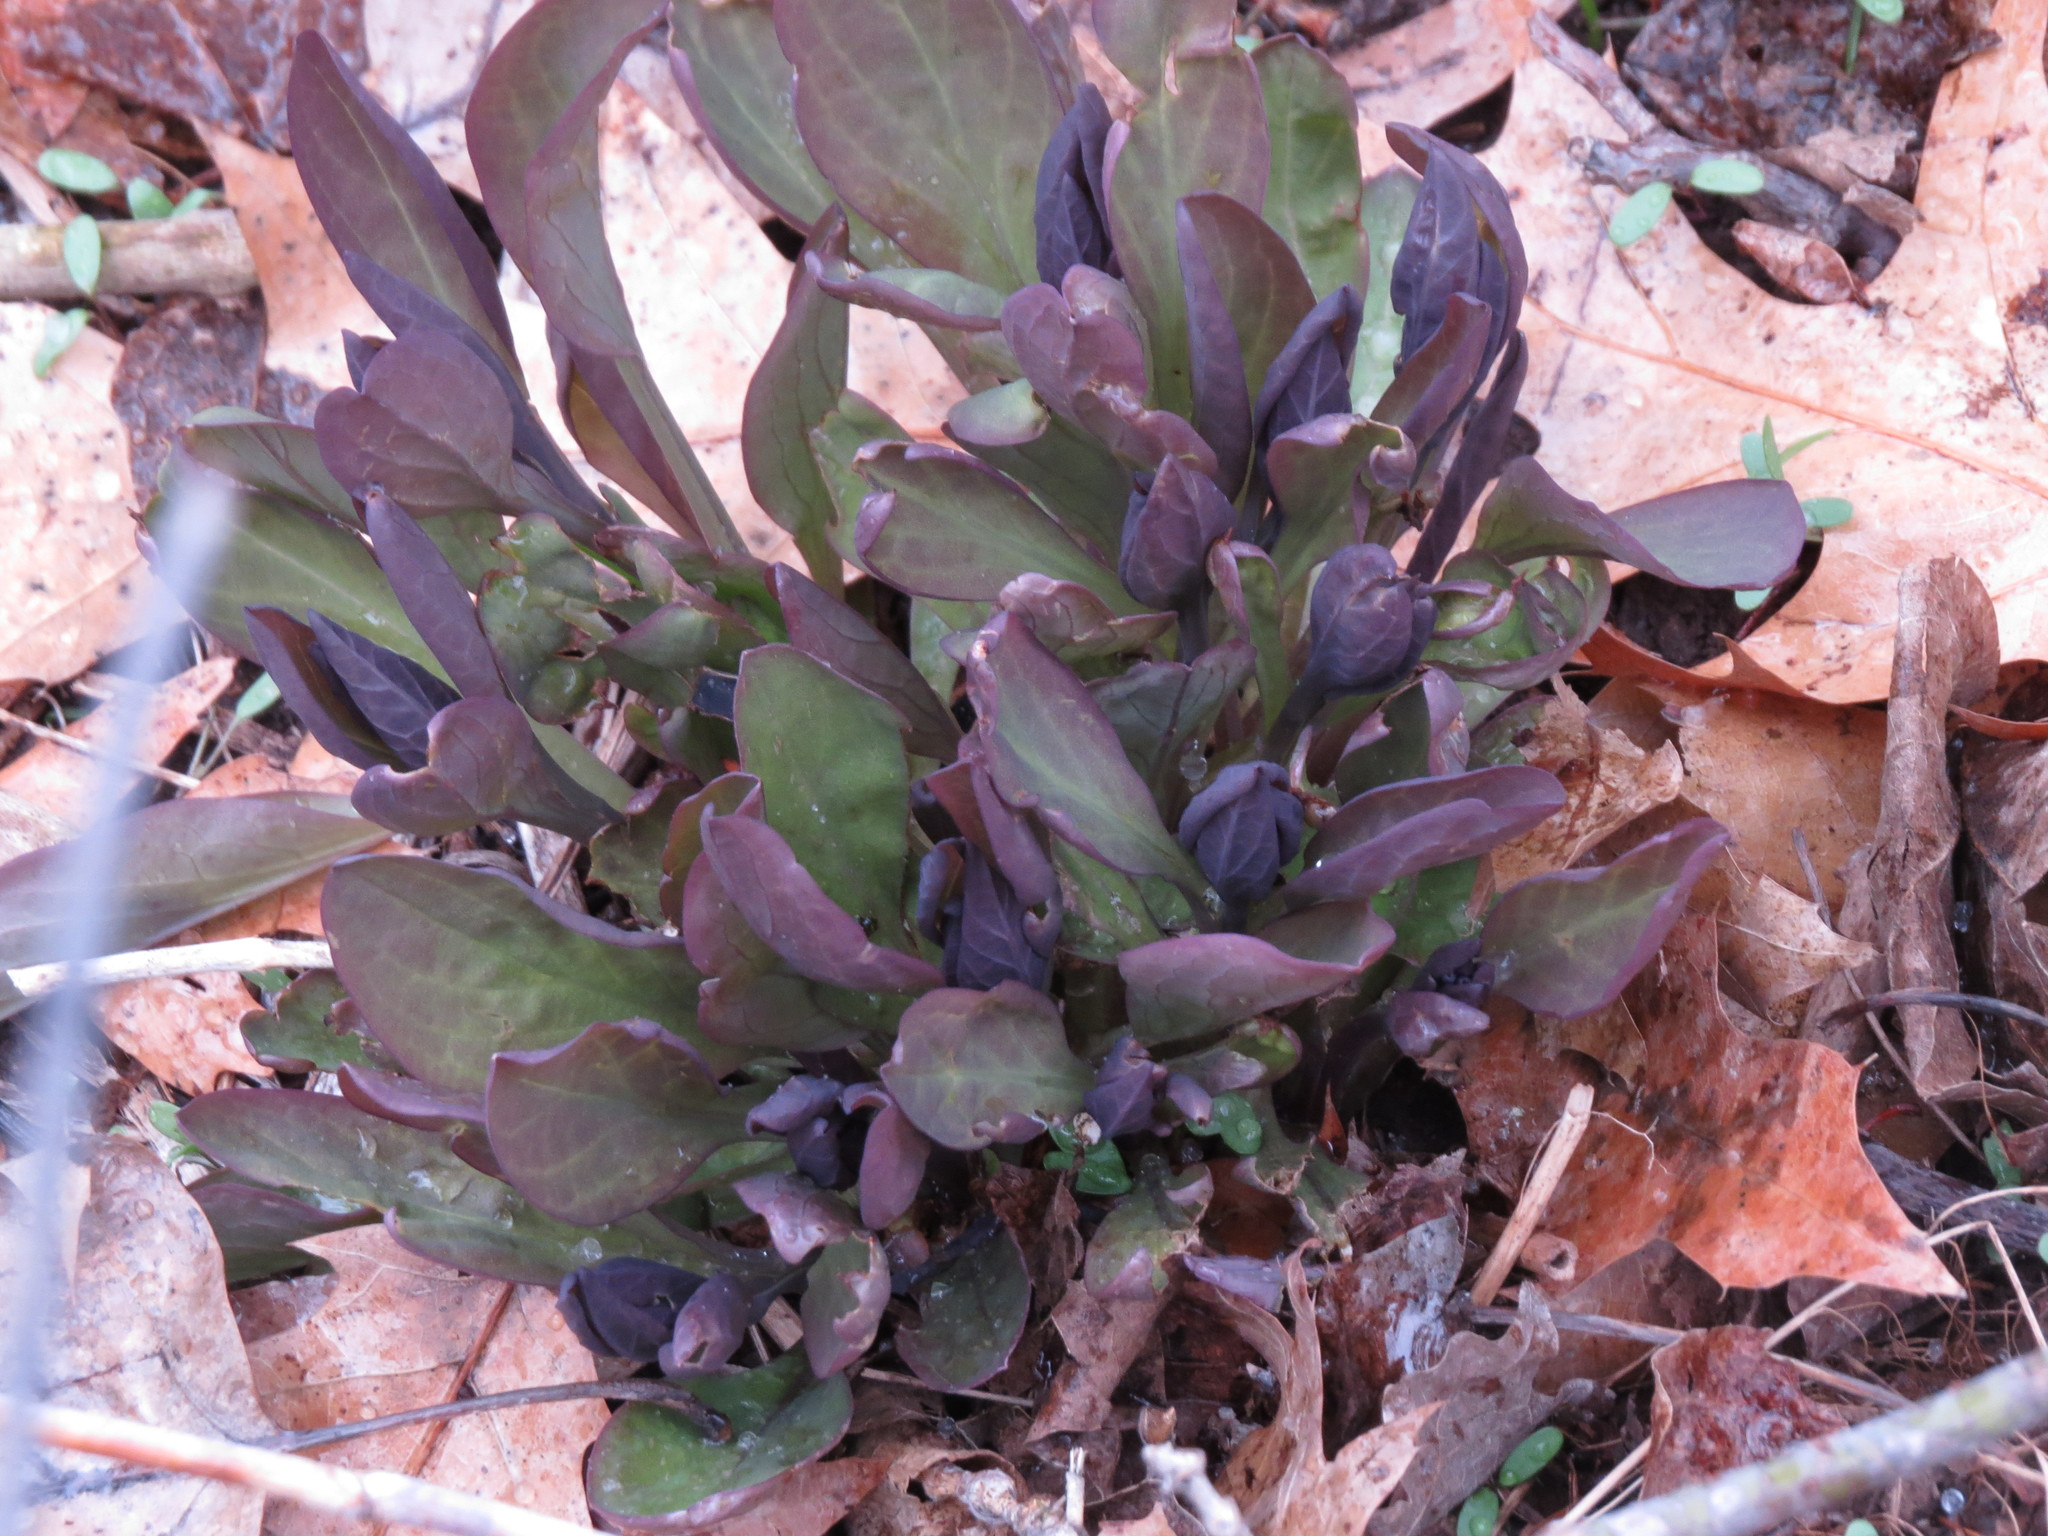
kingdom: Plantae
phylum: Tracheophyta
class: Magnoliopsida
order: Boraginales
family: Boraginaceae
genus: Mertensia
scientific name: Mertensia virginica
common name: Virginia bluebells
